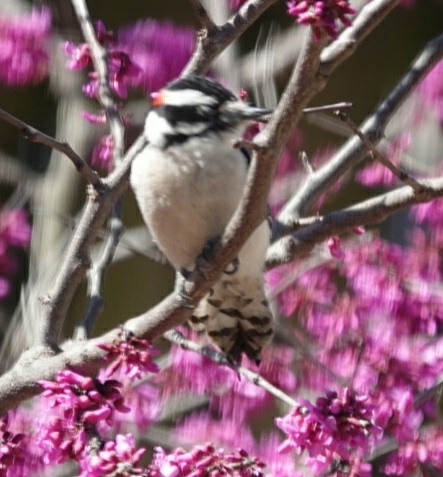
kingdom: Animalia
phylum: Chordata
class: Aves
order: Piciformes
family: Picidae
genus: Dryobates
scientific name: Dryobates pubescens
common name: Downy woodpecker
